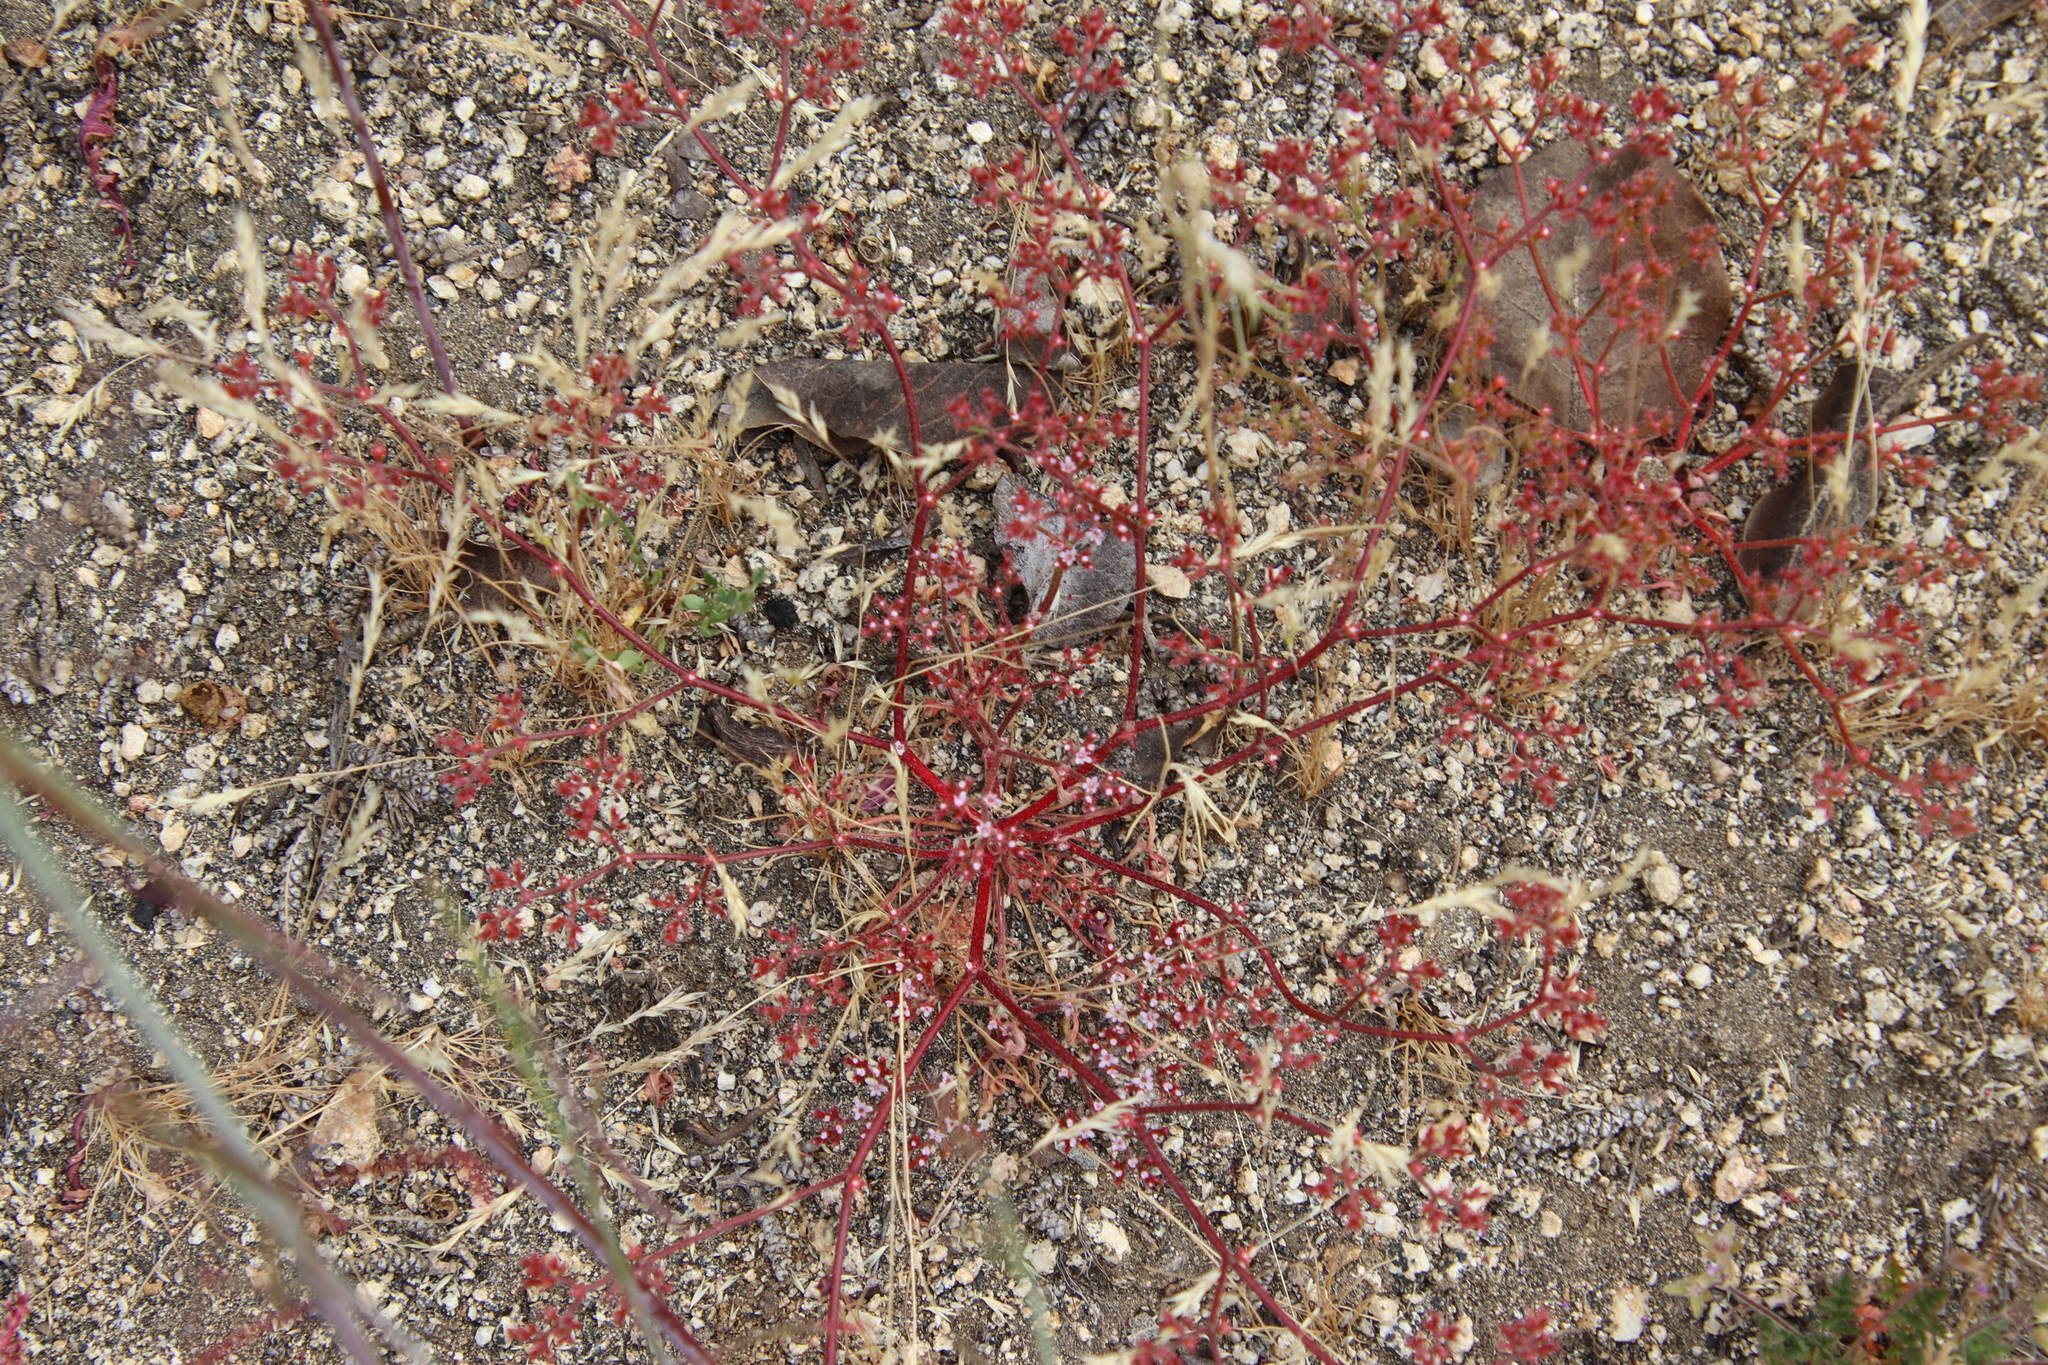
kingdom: Plantae
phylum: Tracheophyta
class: Magnoliopsida
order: Caryophyllales
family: Polygonaceae
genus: Chorizanthe
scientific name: Chorizanthe leptotheca
